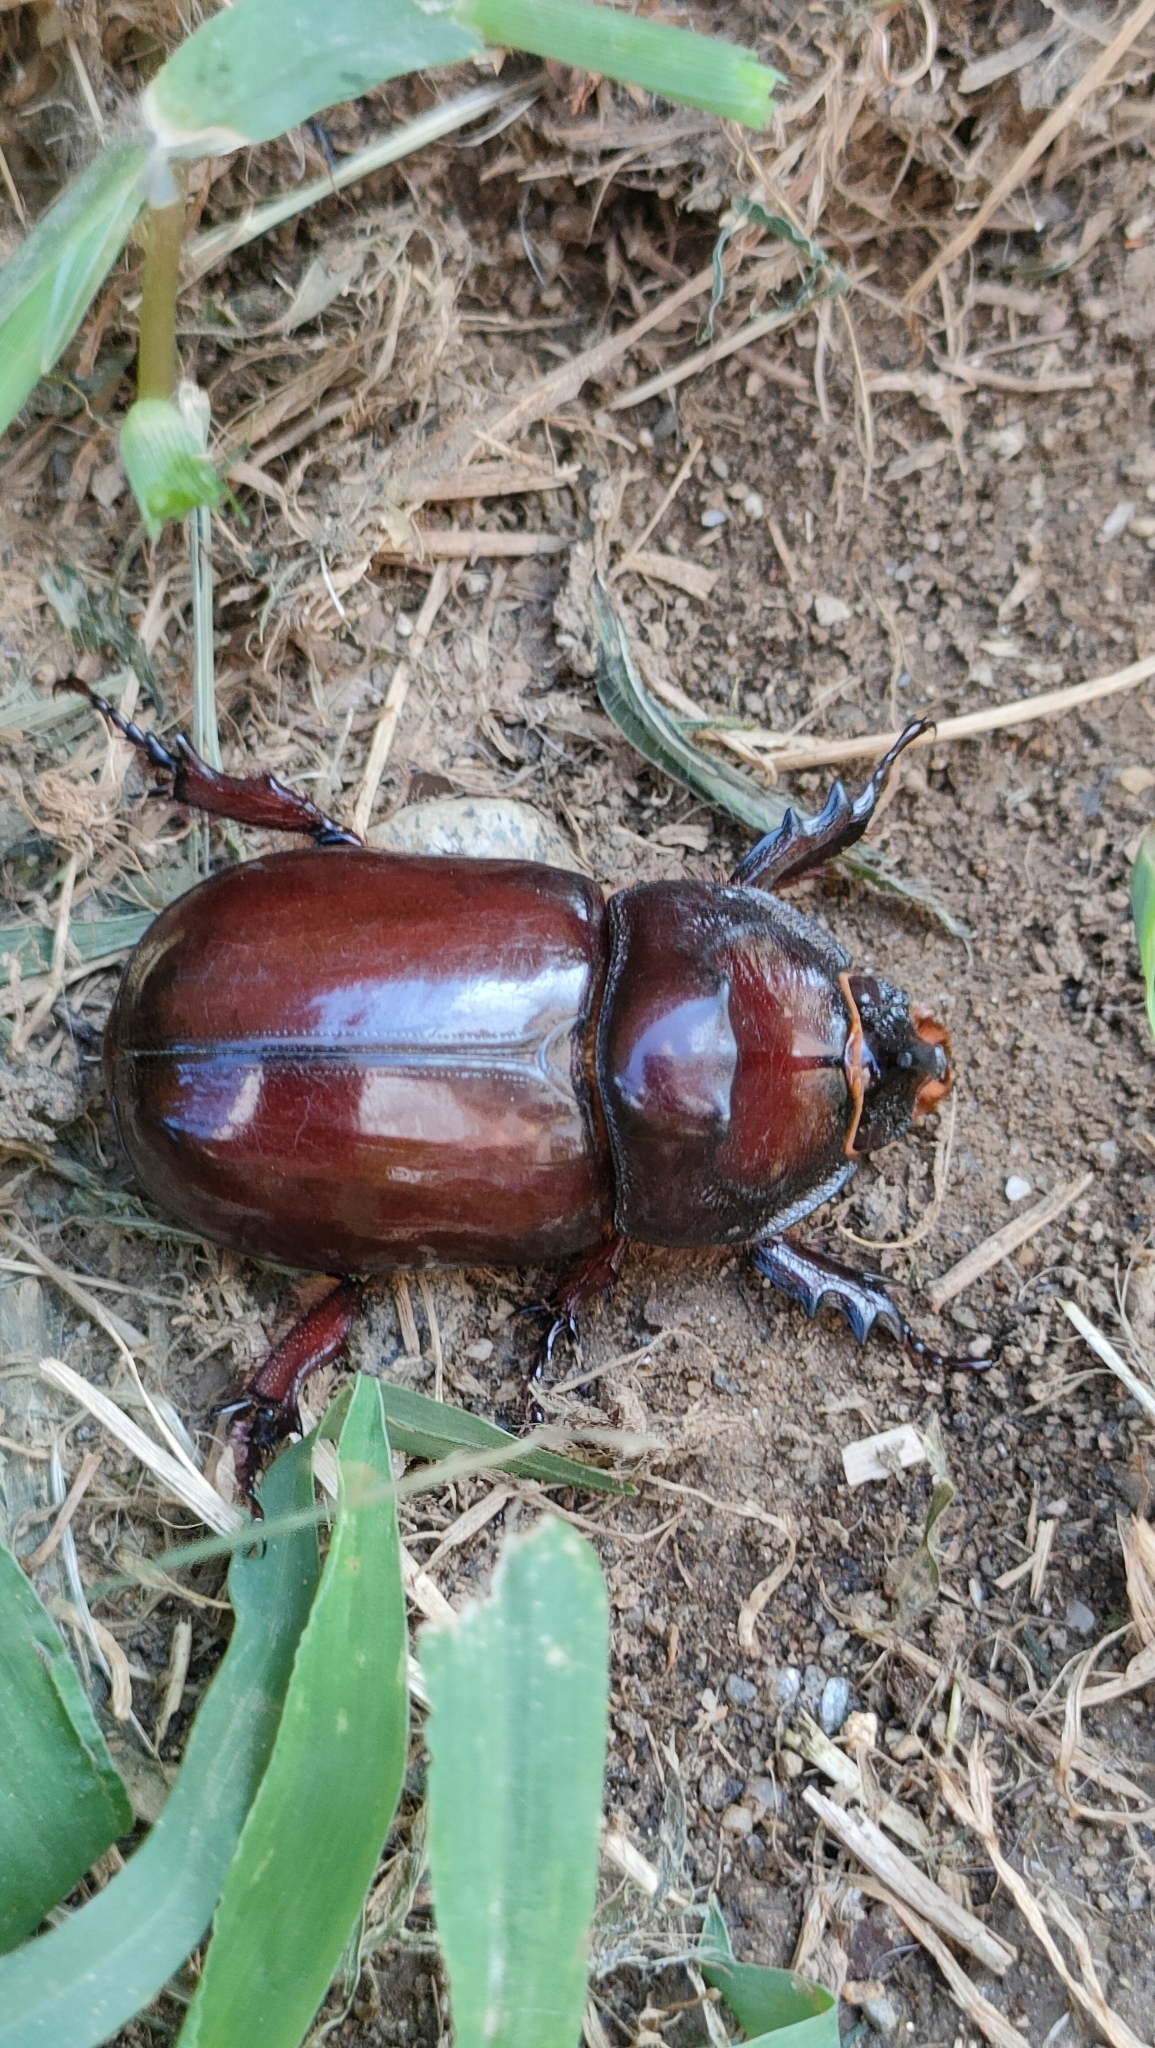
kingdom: Animalia
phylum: Arthropoda
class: Insecta
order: Coleoptera
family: Scarabaeidae
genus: Oryctes
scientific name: Oryctes nasicornis
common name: European rhinoceros beetle
